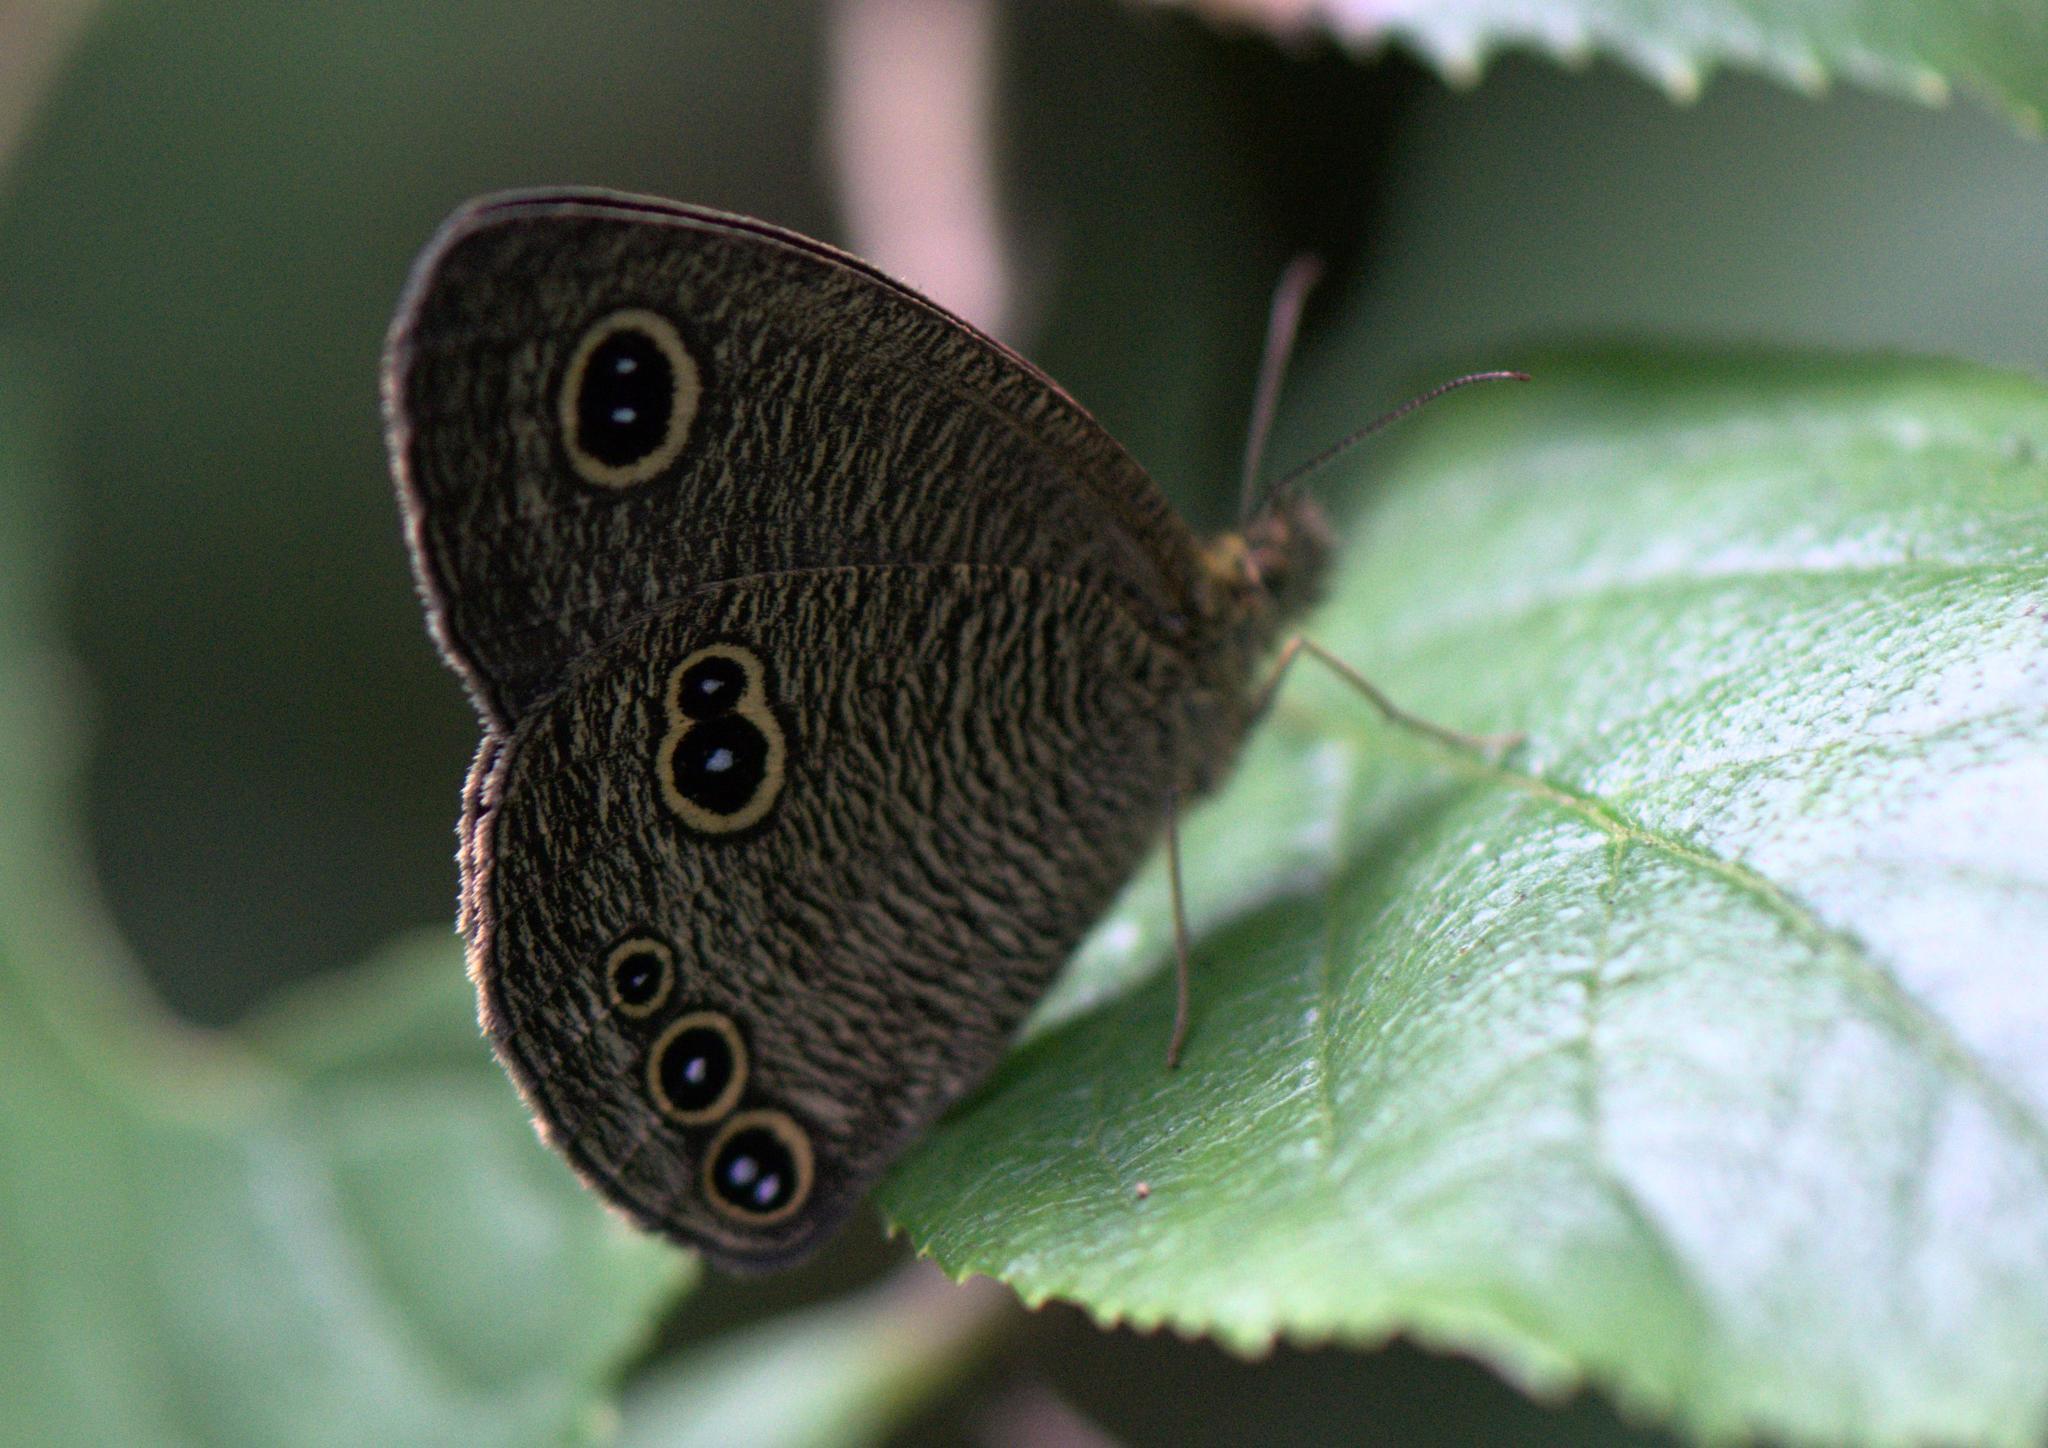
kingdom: Animalia
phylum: Arthropoda
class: Insecta
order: Lepidoptera
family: Nymphalidae
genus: Ypthima
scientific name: Ypthima nikaea
